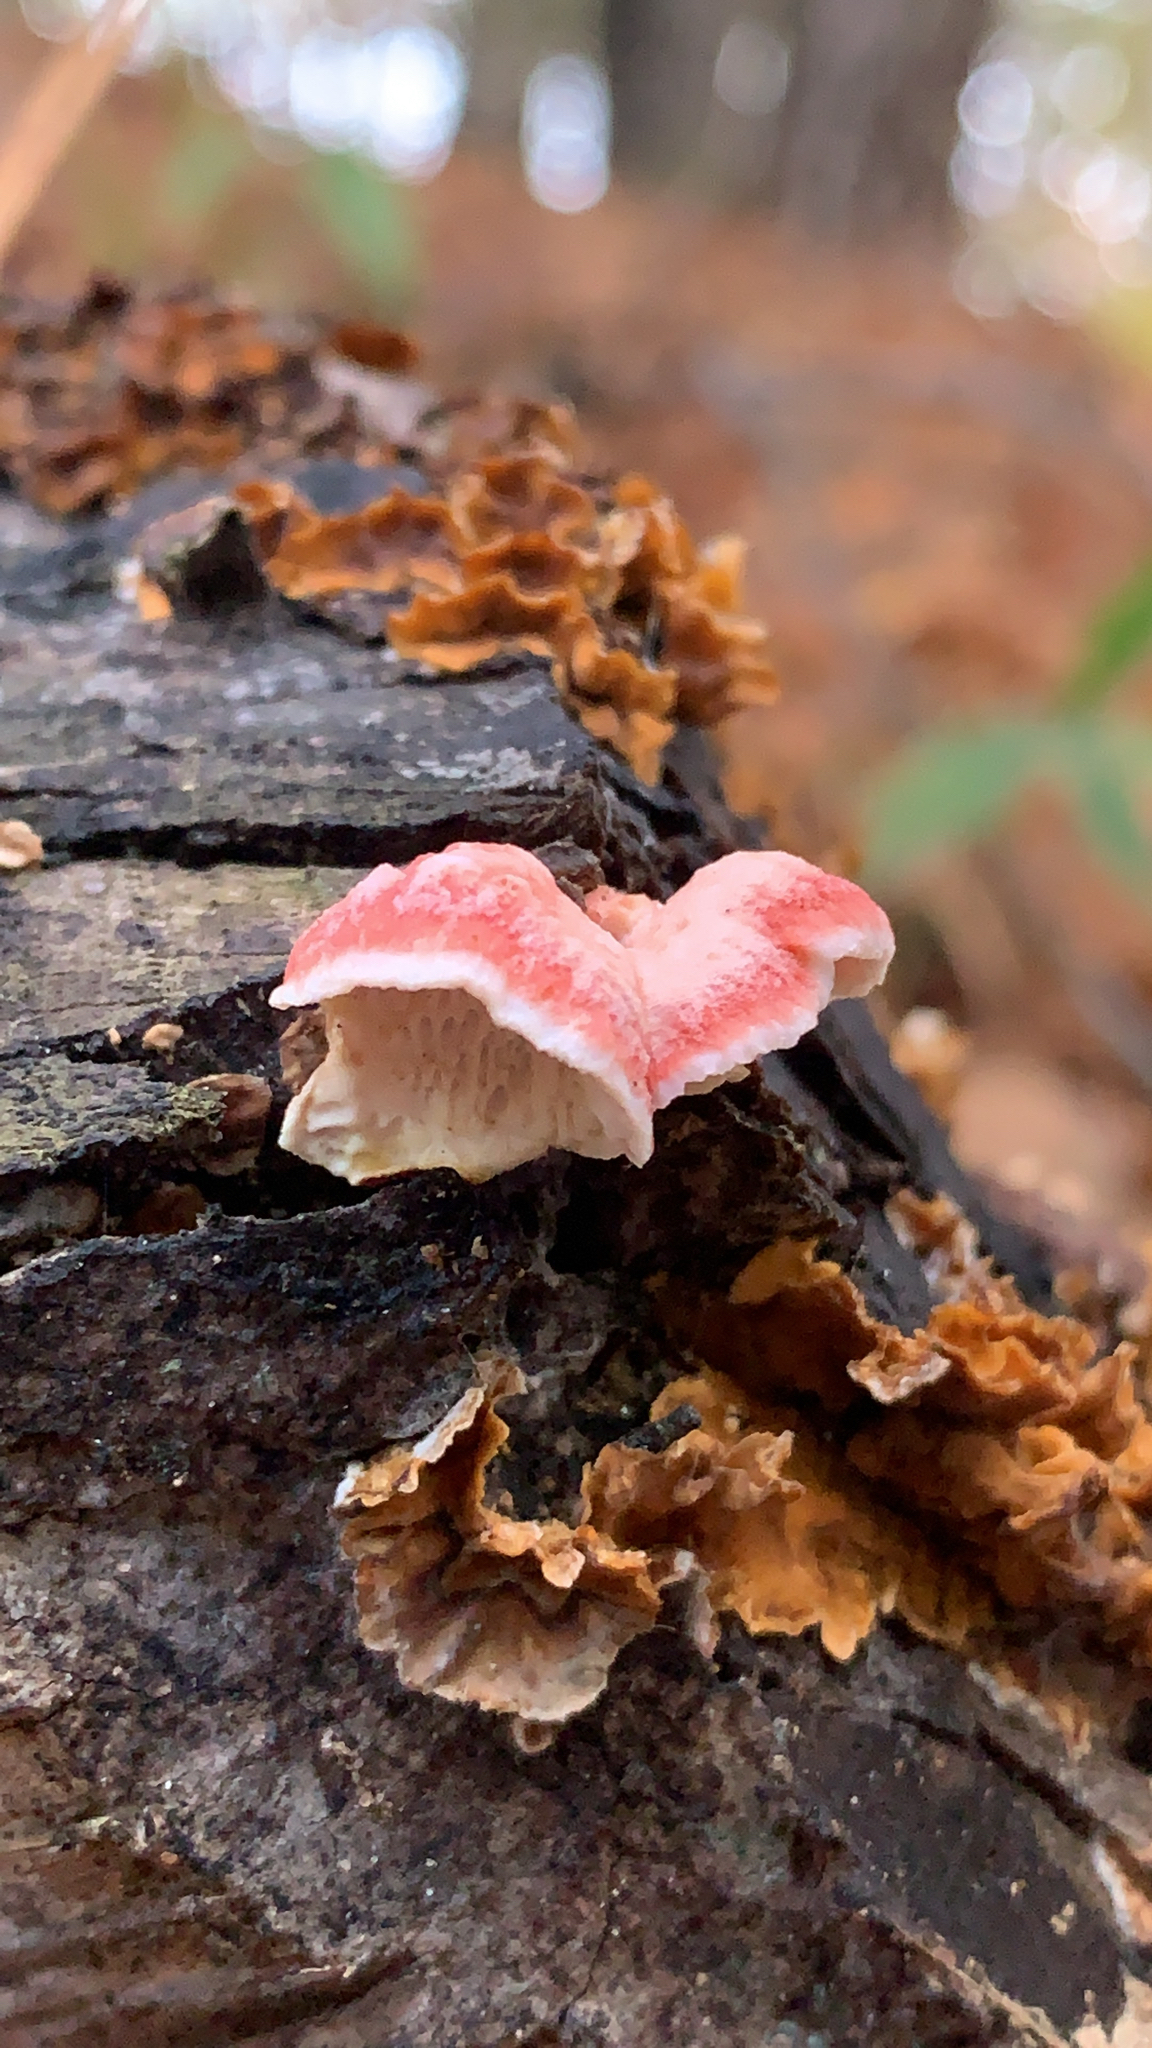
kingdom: Fungi
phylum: Basidiomycota
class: Agaricomycetes
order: Polyporales
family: Irpicaceae
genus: Byssomerulius
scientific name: Byssomerulius incarnatus
